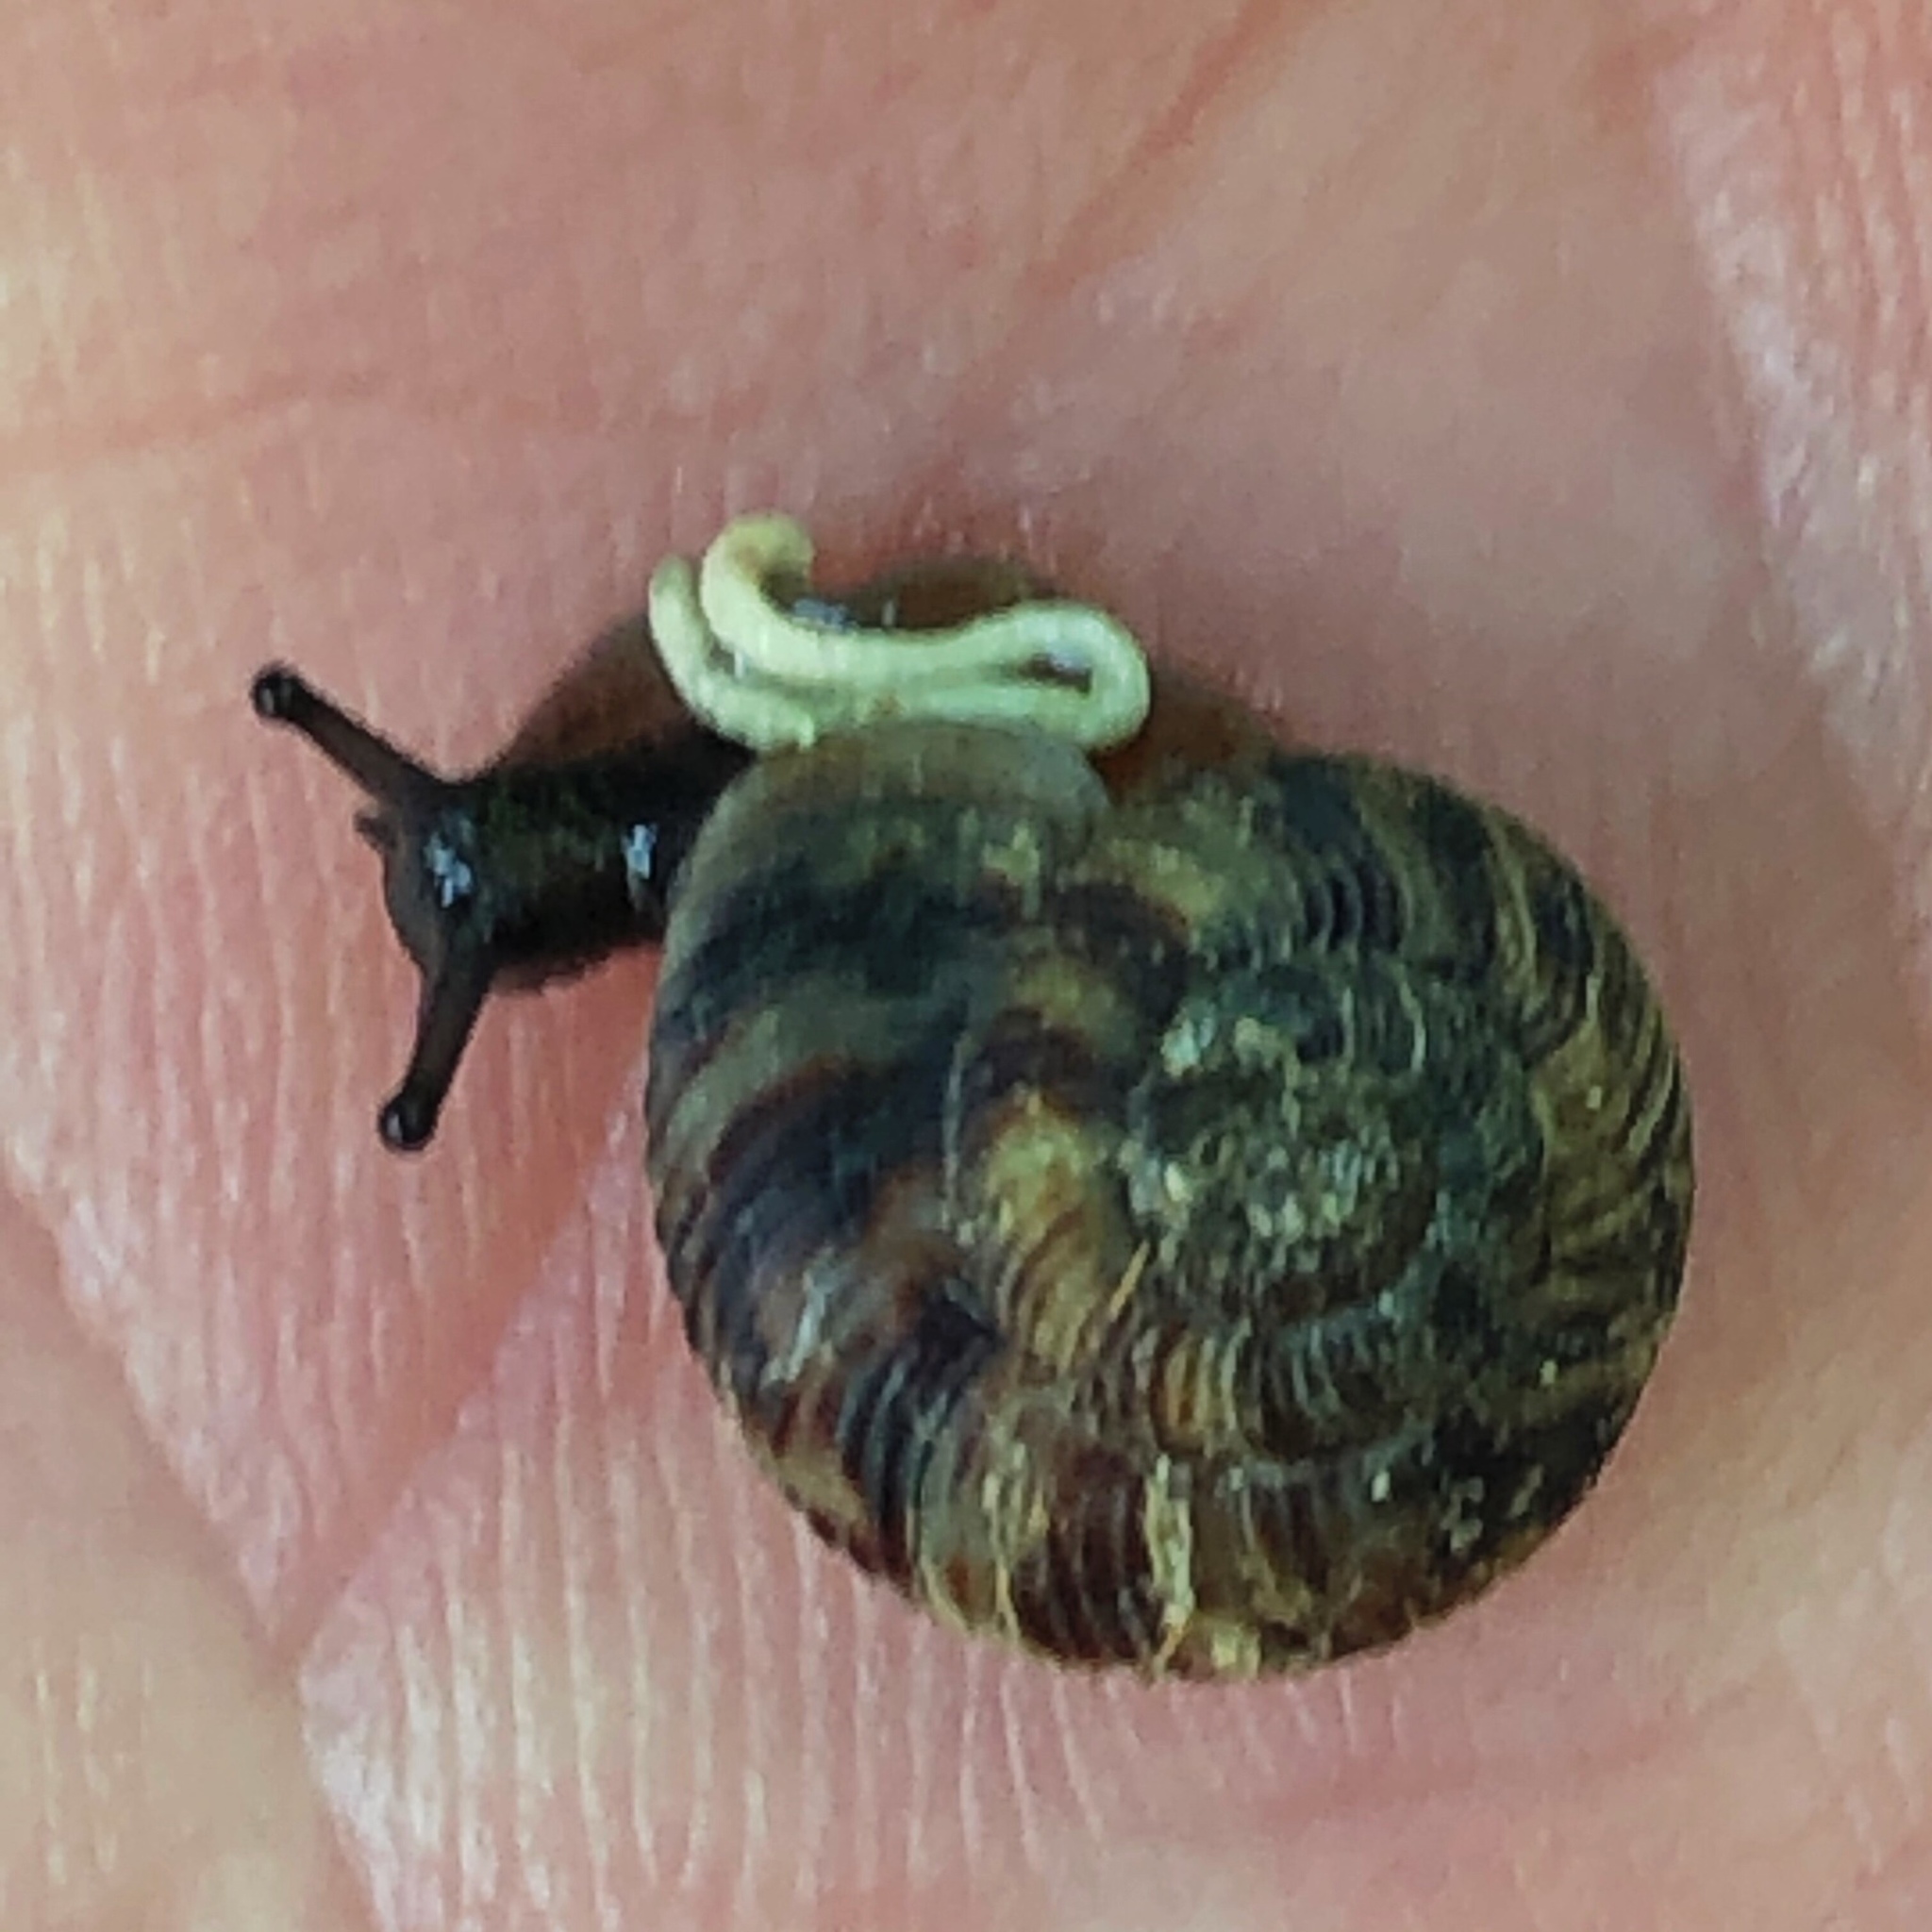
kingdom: Animalia
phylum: Mollusca
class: Gastropoda
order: Stylommatophora
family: Discidae
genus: Anguispira
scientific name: Anguispira alternata
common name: Flamed tigersnail
